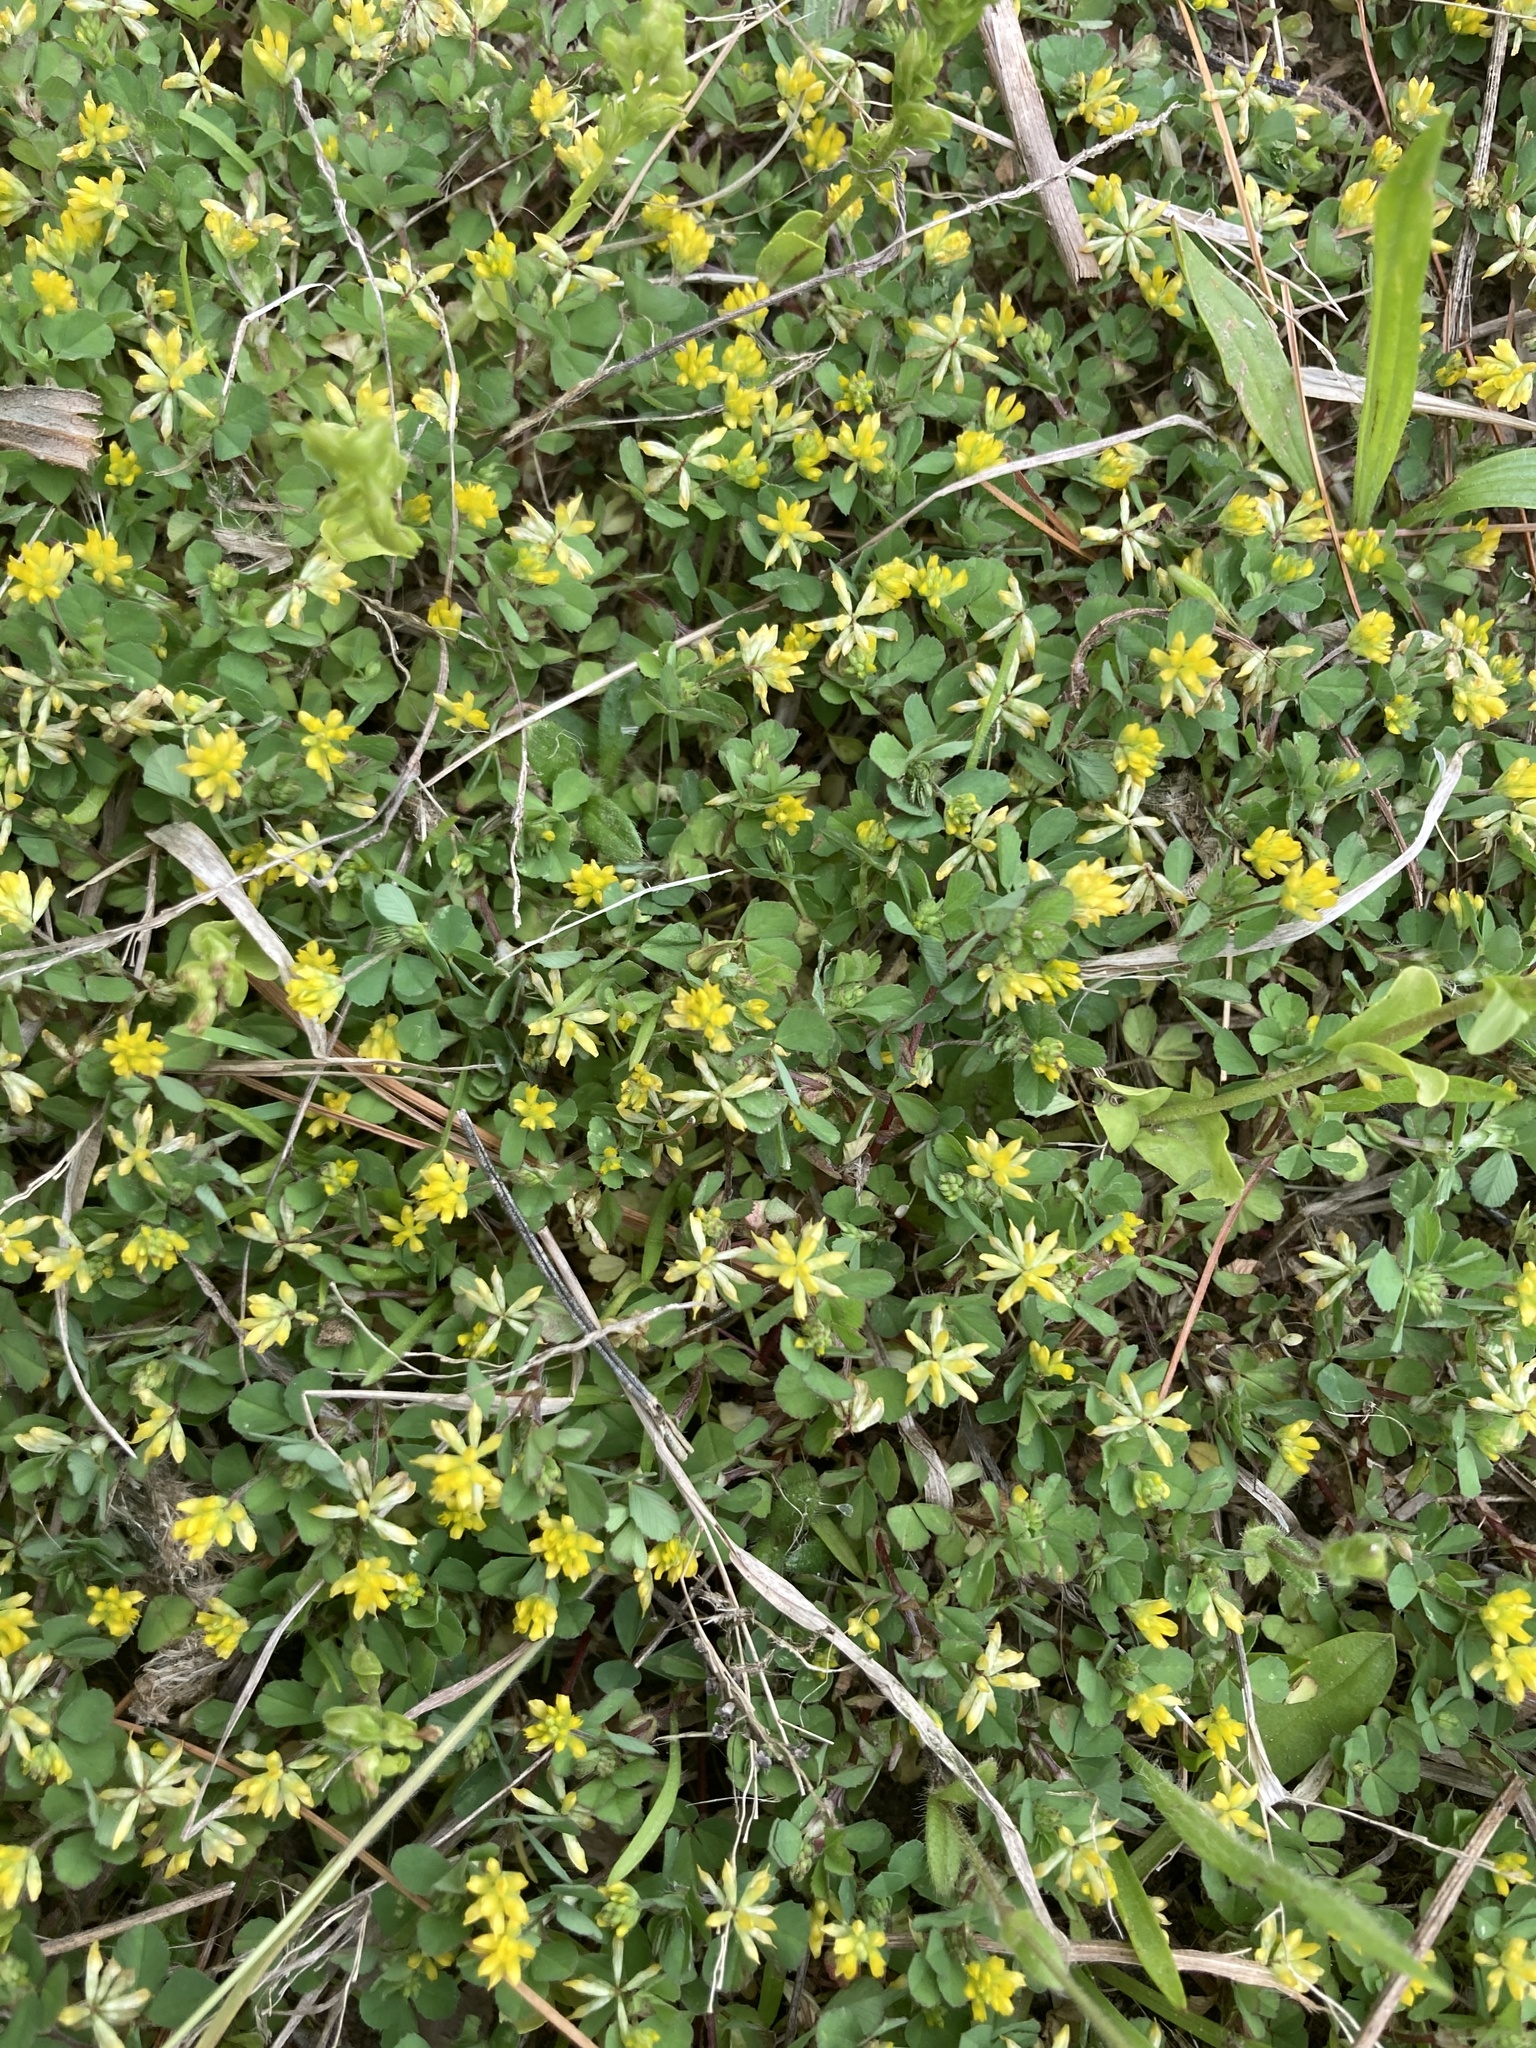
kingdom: Plantae
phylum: Tracheophyta
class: Magnoliopsida
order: Fabales
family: Fabaceae
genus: Trifolium
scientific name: Trifolium dubium
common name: Suckling clover
